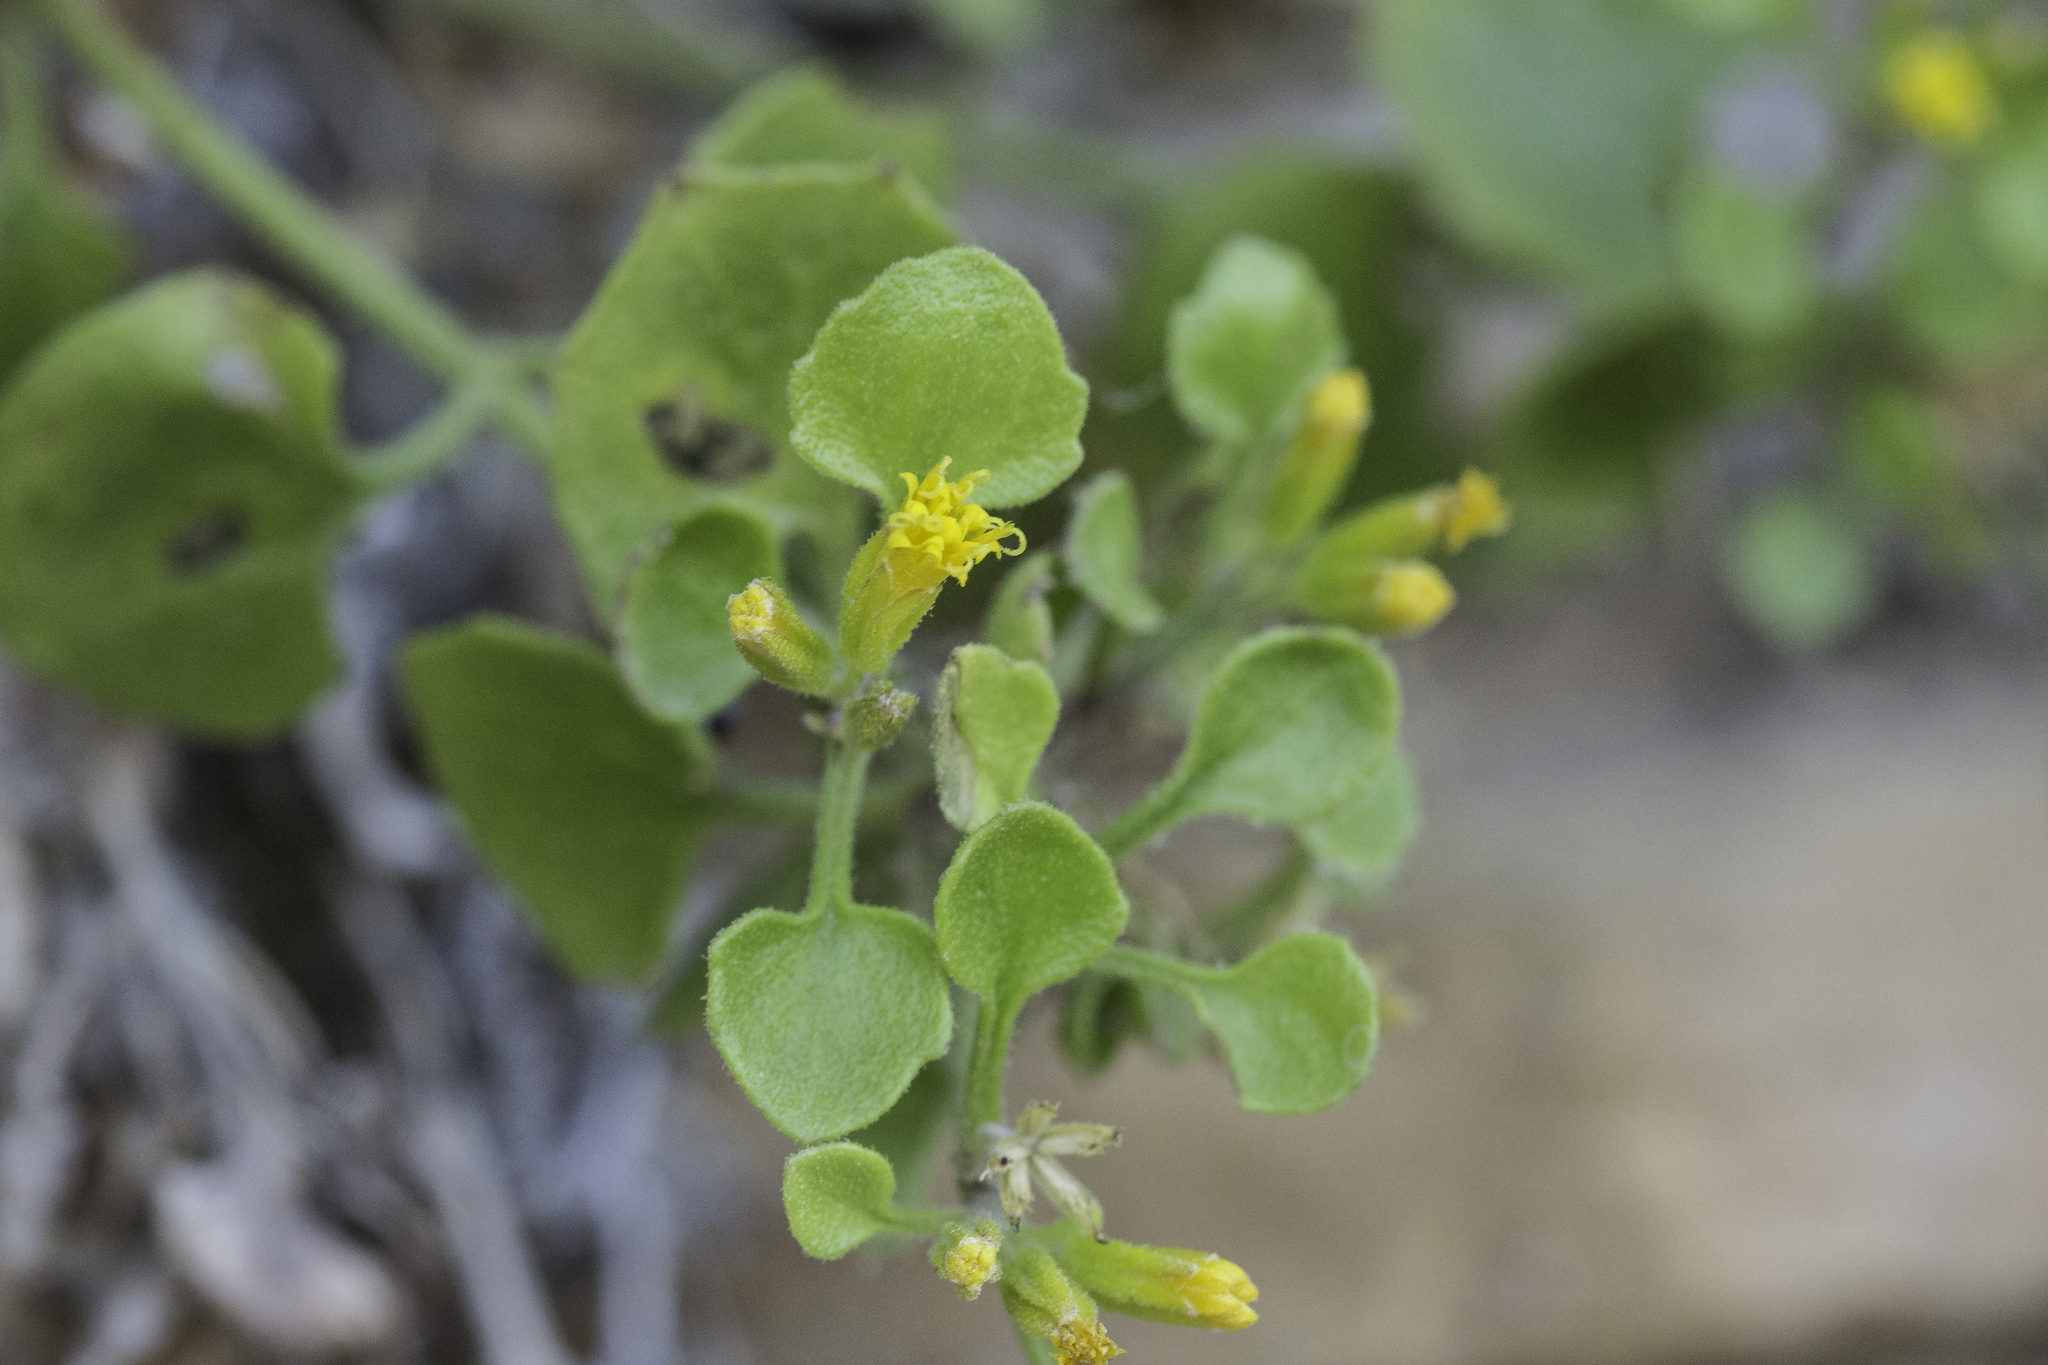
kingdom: Plantae
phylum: Tracheophyta
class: Magnoliopsida
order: Asterales
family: Asteraceae
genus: Laphamia
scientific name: Laphamia quinqueflora
